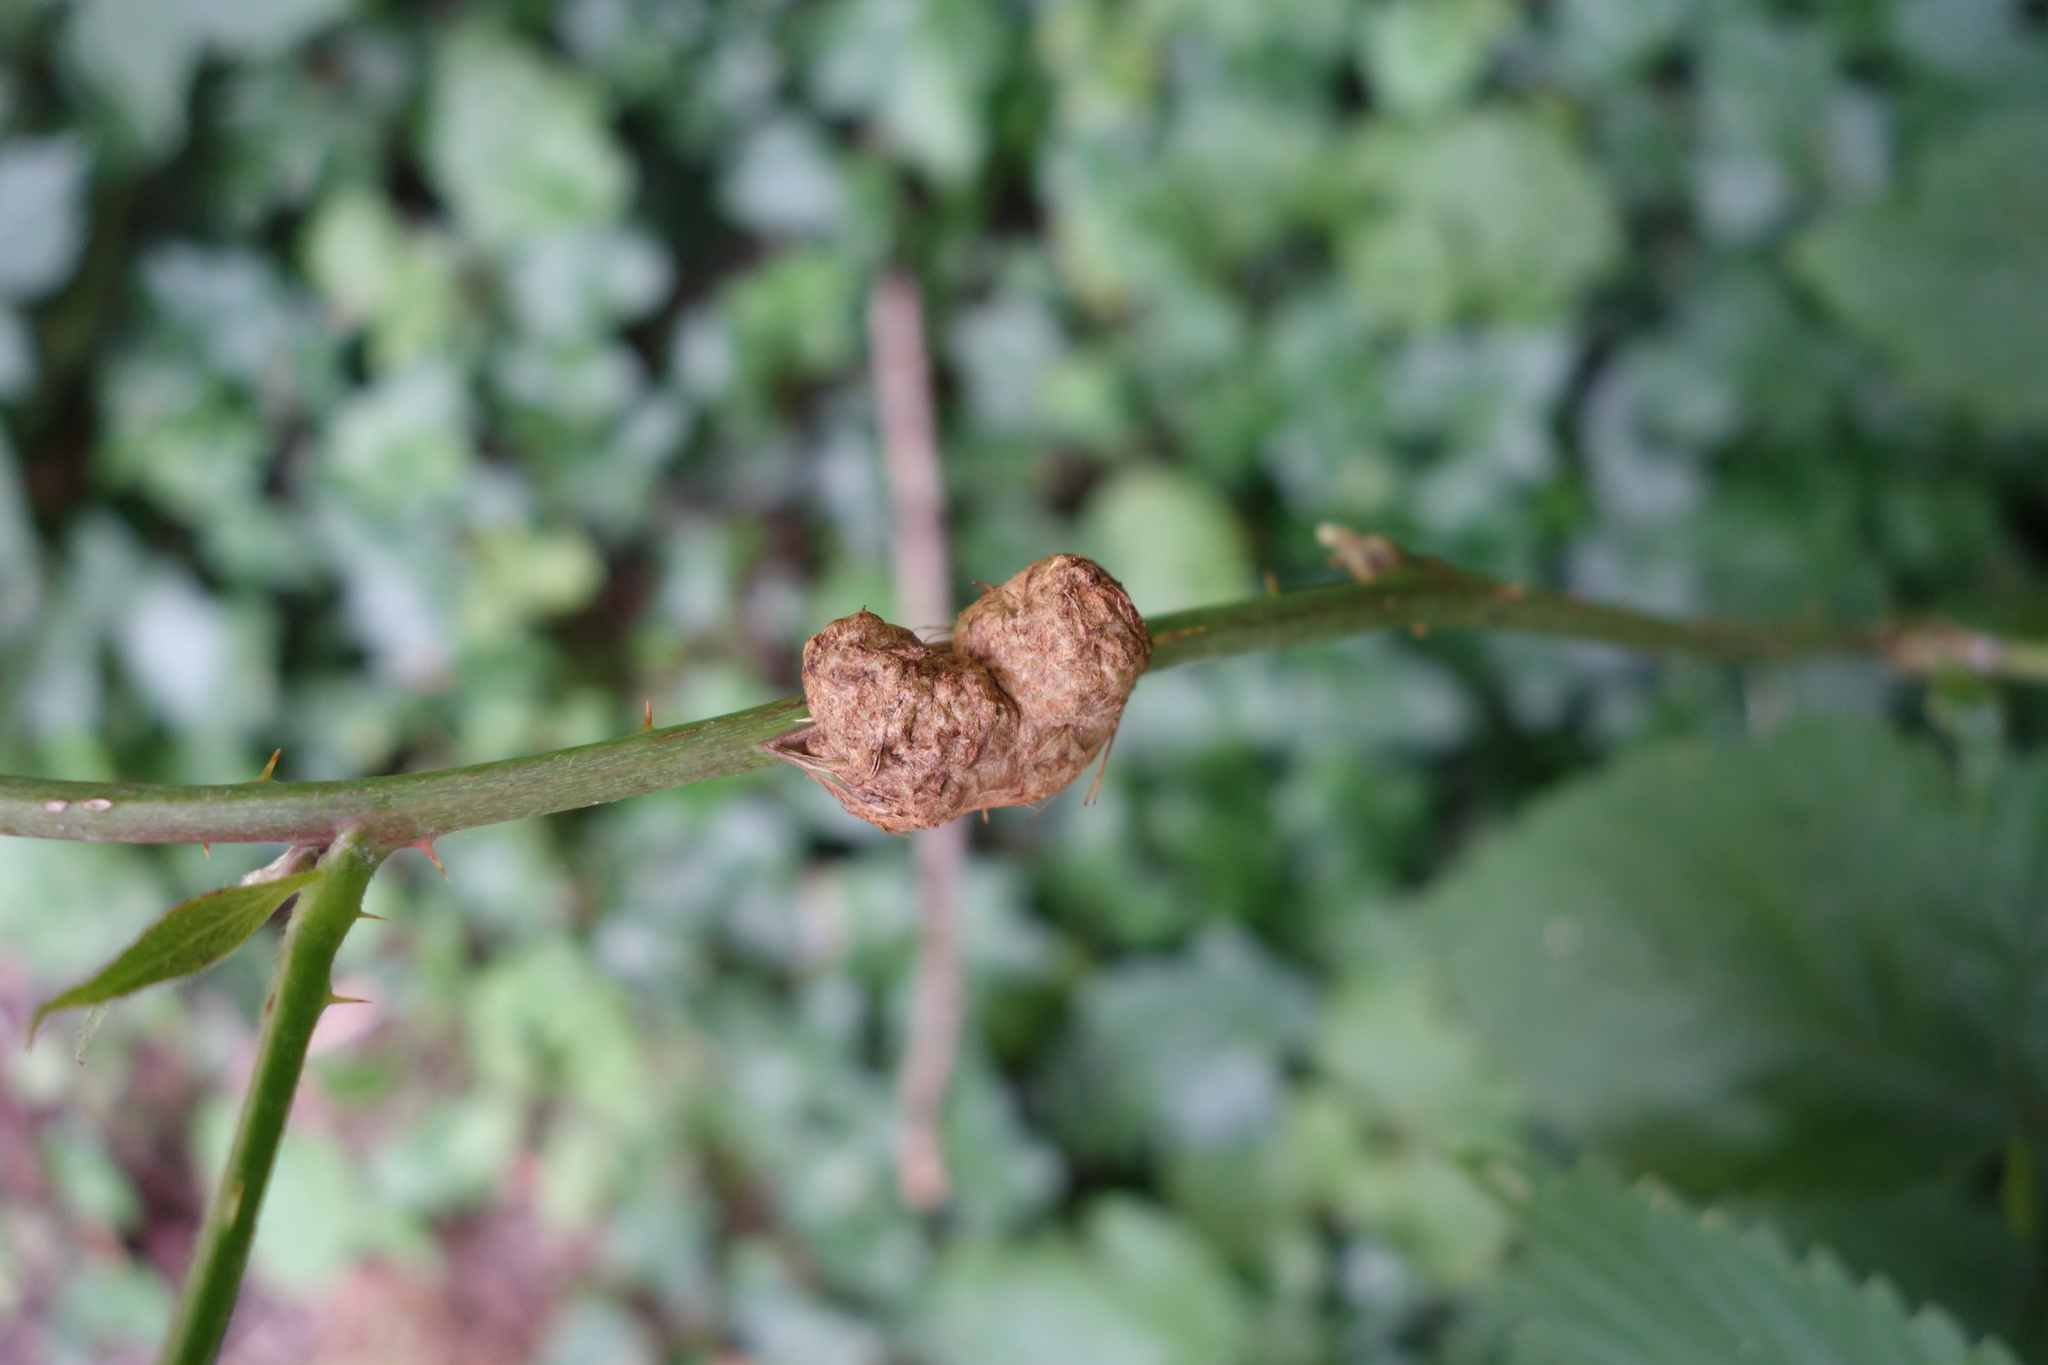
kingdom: Animalia
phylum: Arthropoda
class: Insecta
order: Diptera
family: Cecidomyiidae
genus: Lasioptera
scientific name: Lasioptera rubi
